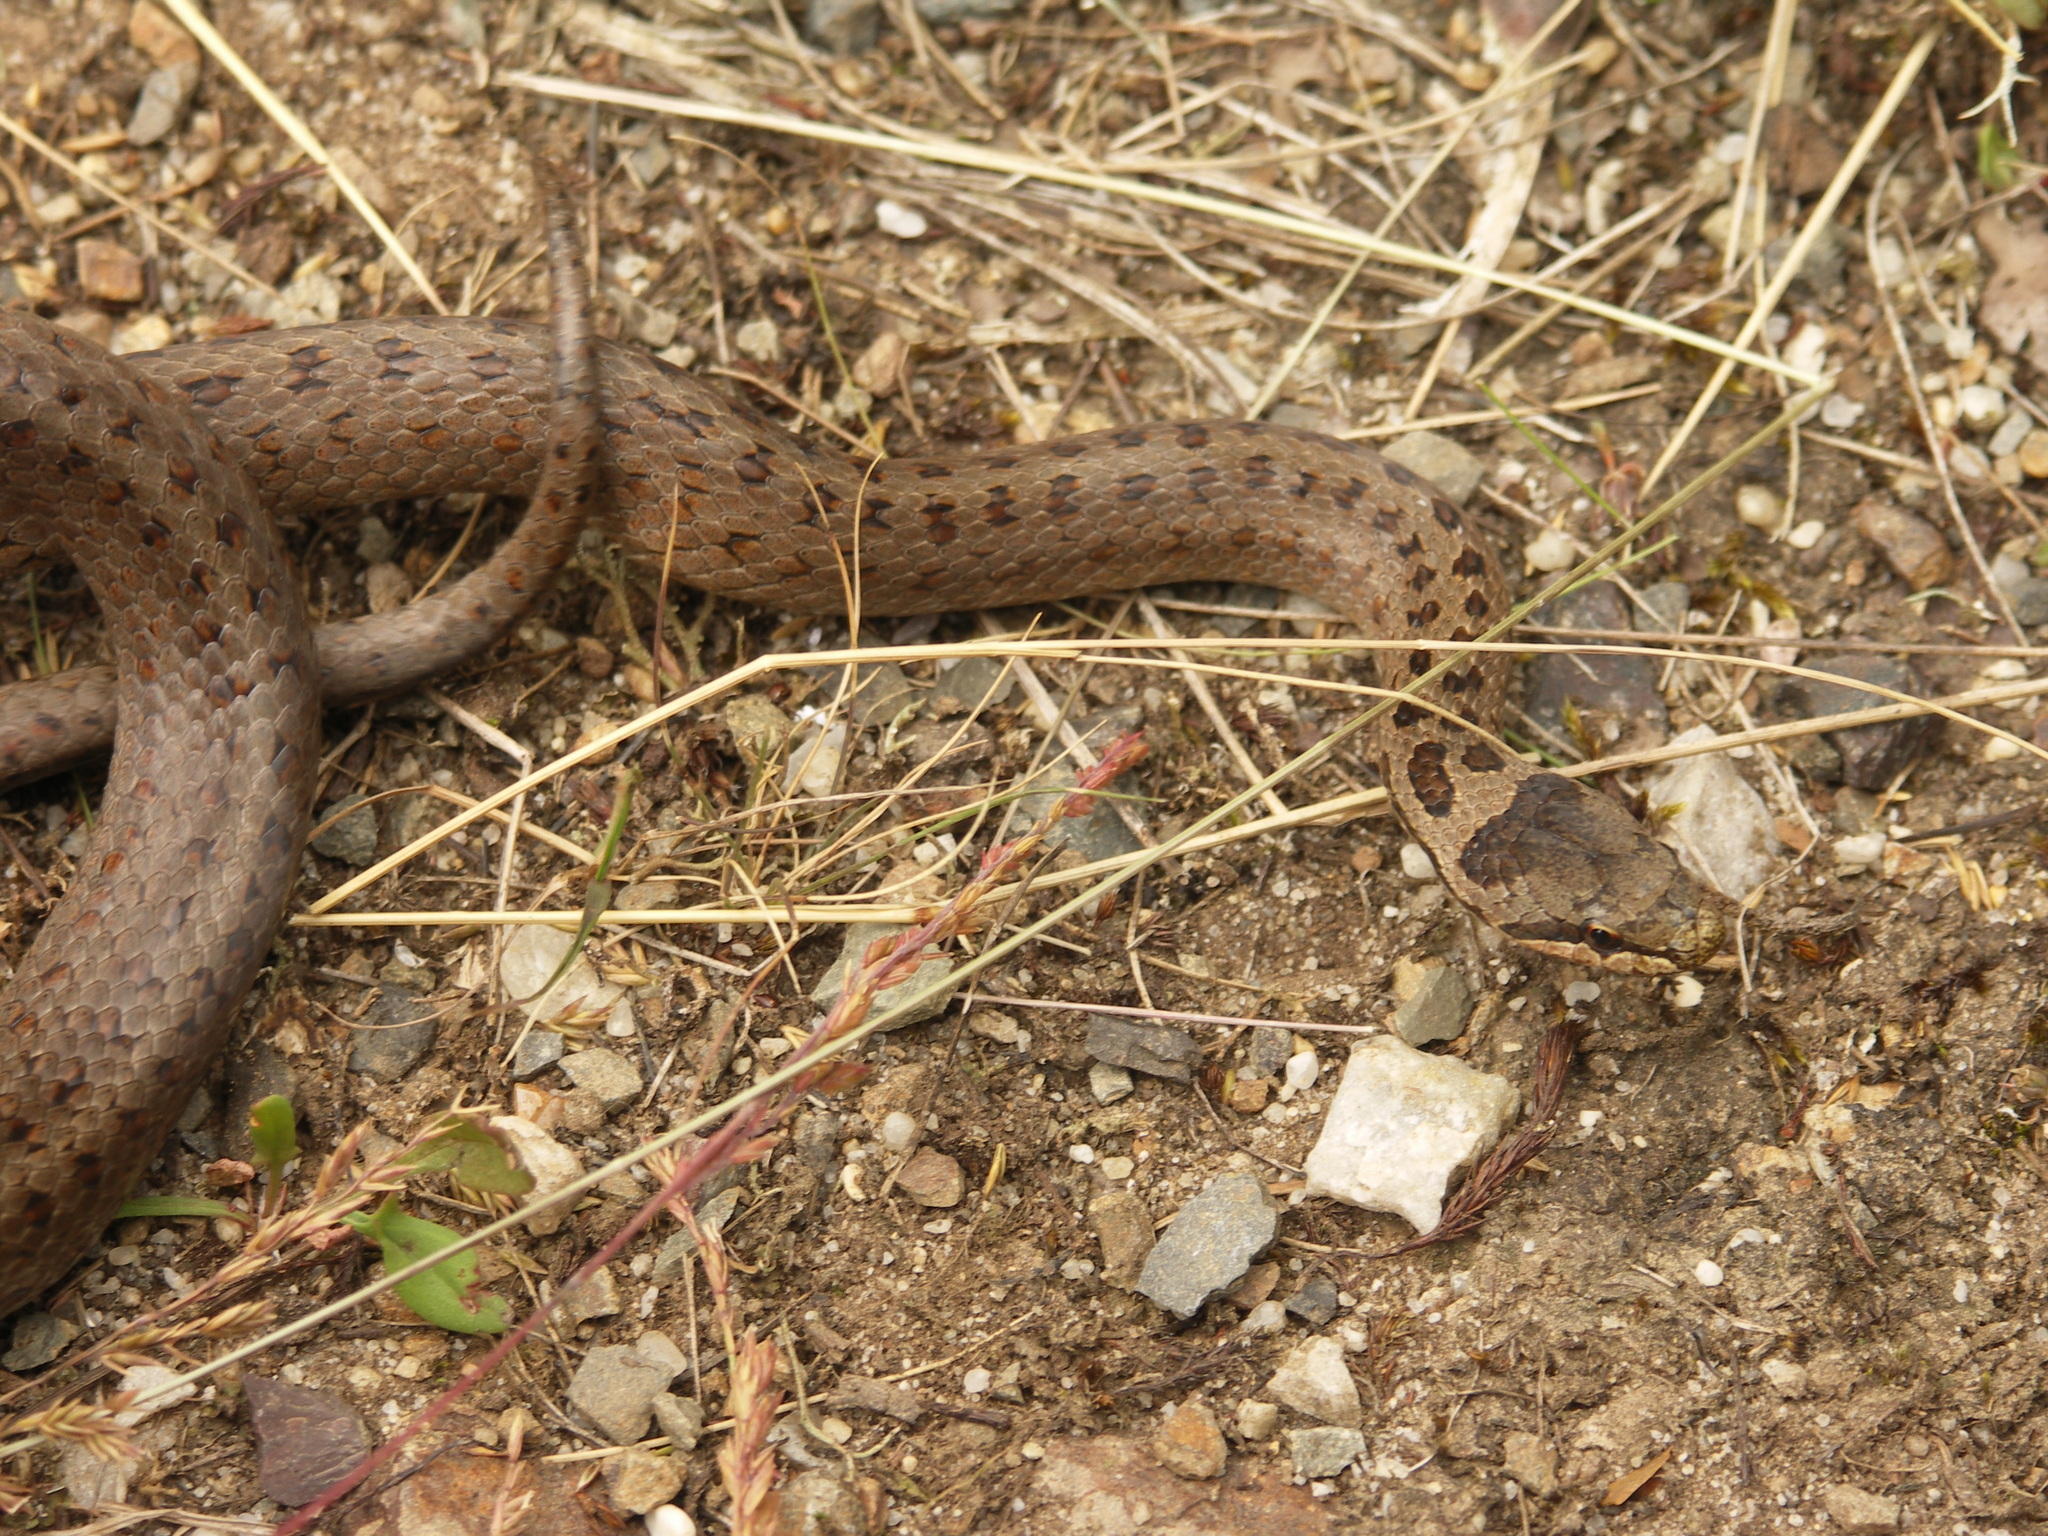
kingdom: Animalia
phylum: Chordata
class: Squamata
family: Colubridae
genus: Coronella
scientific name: Coronella austriaca
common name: Smooth snake
